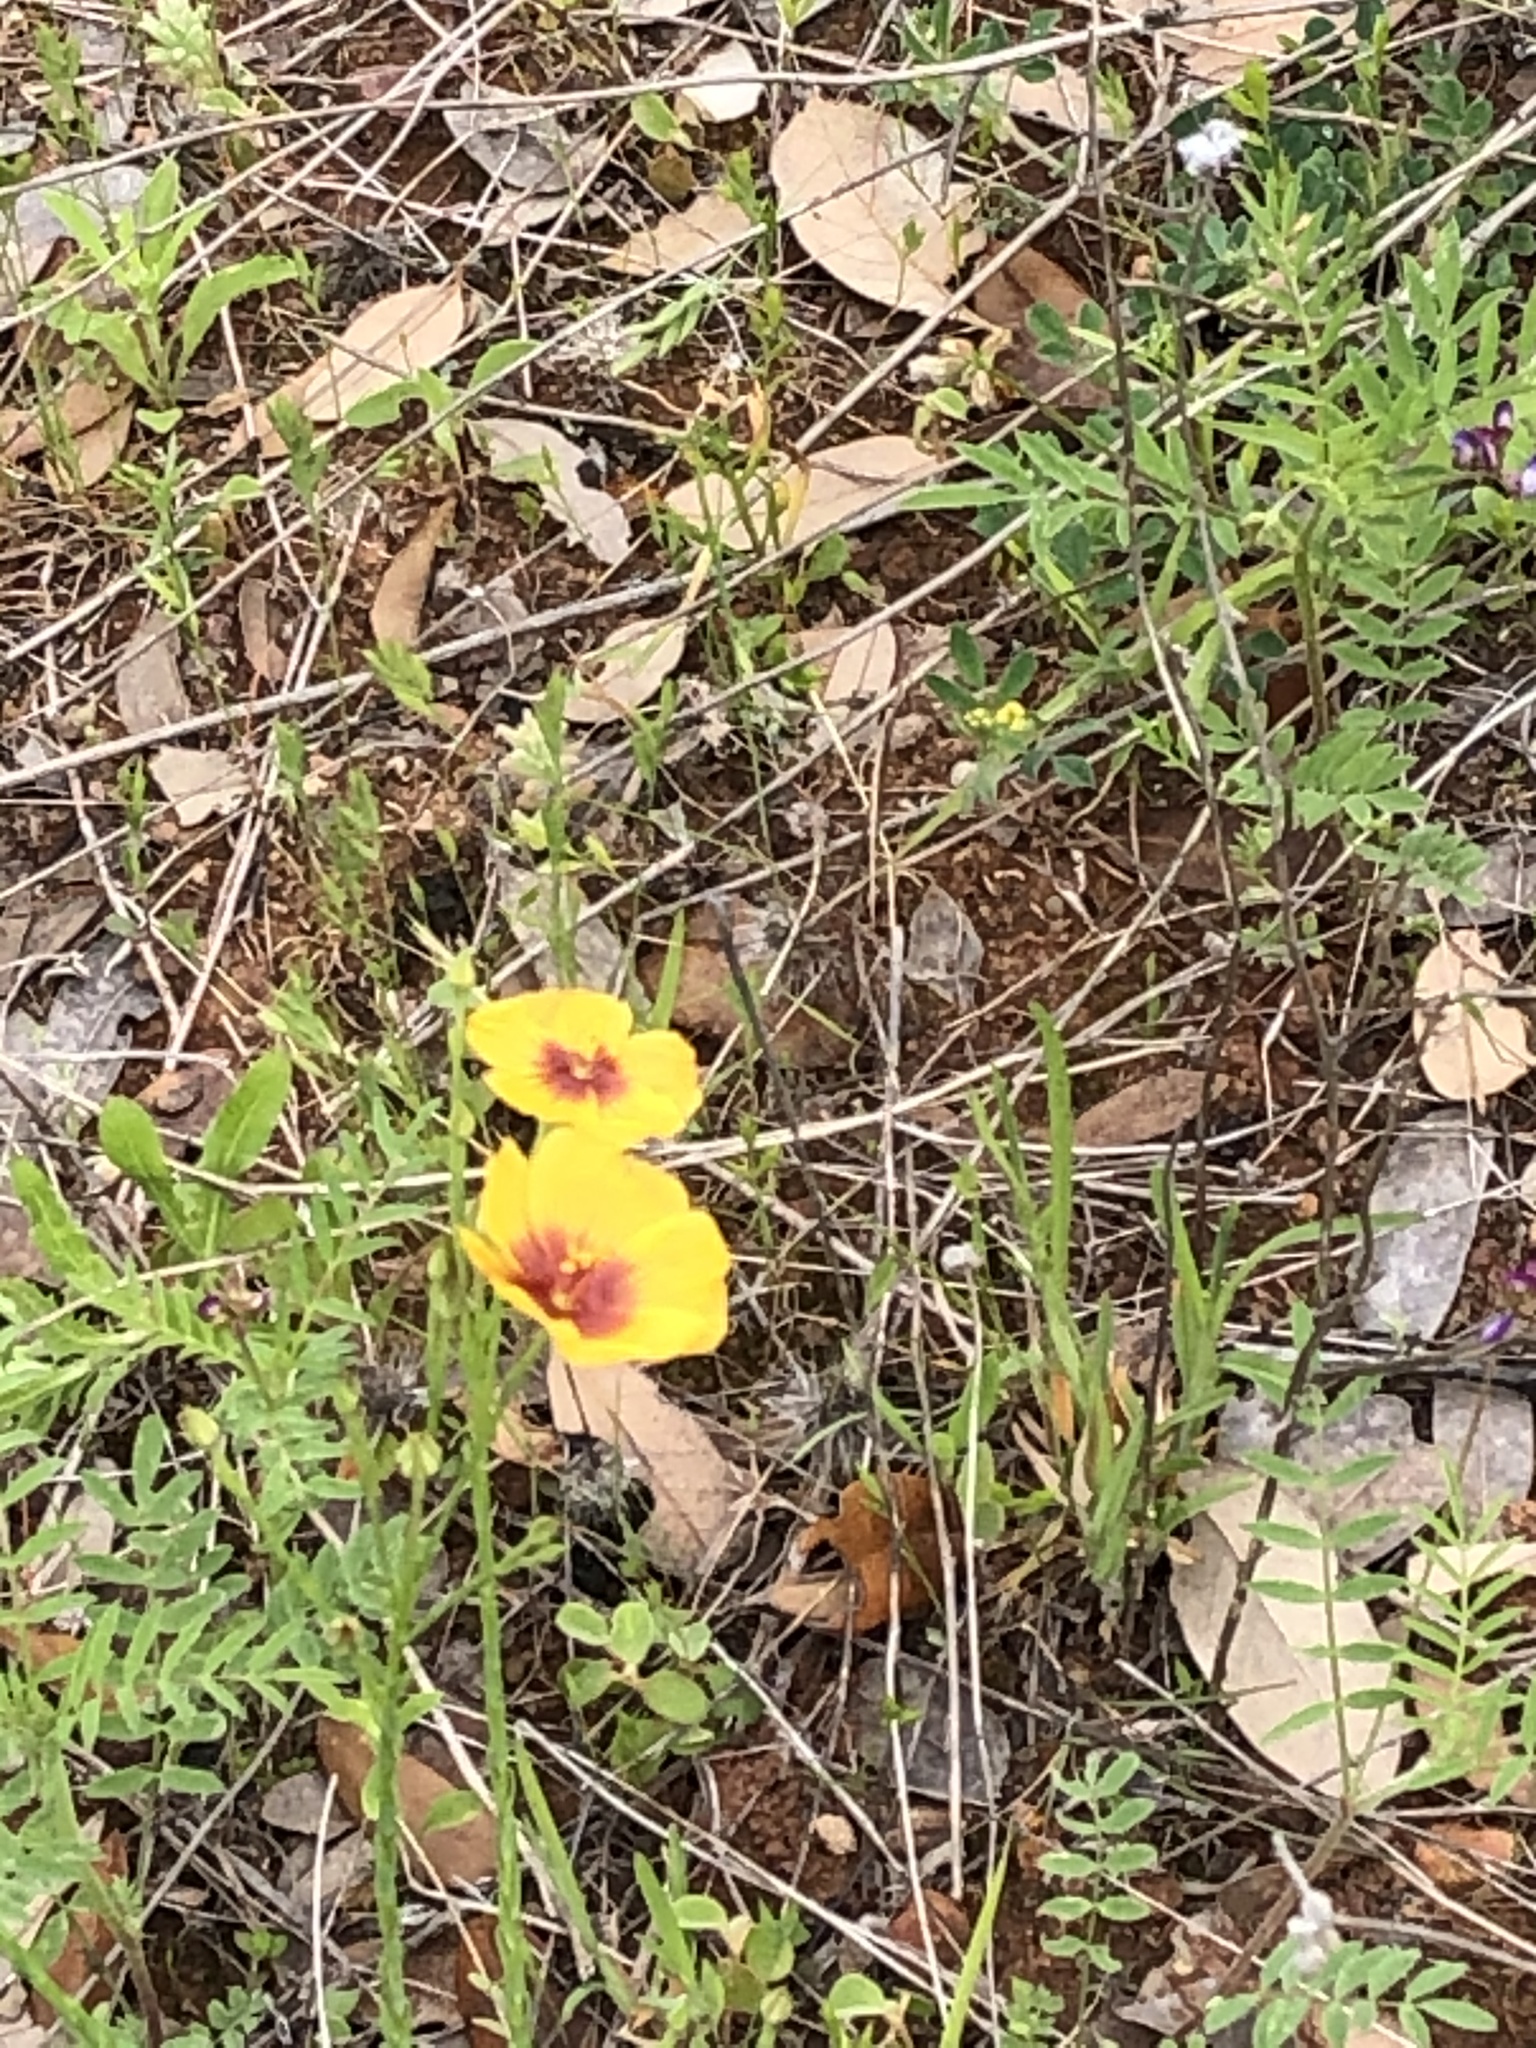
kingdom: Plantae
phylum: Tracheophyta
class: Magnoliopsida
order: Malpighiales
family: Linaceae
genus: Linum
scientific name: Linum hudsonioides
